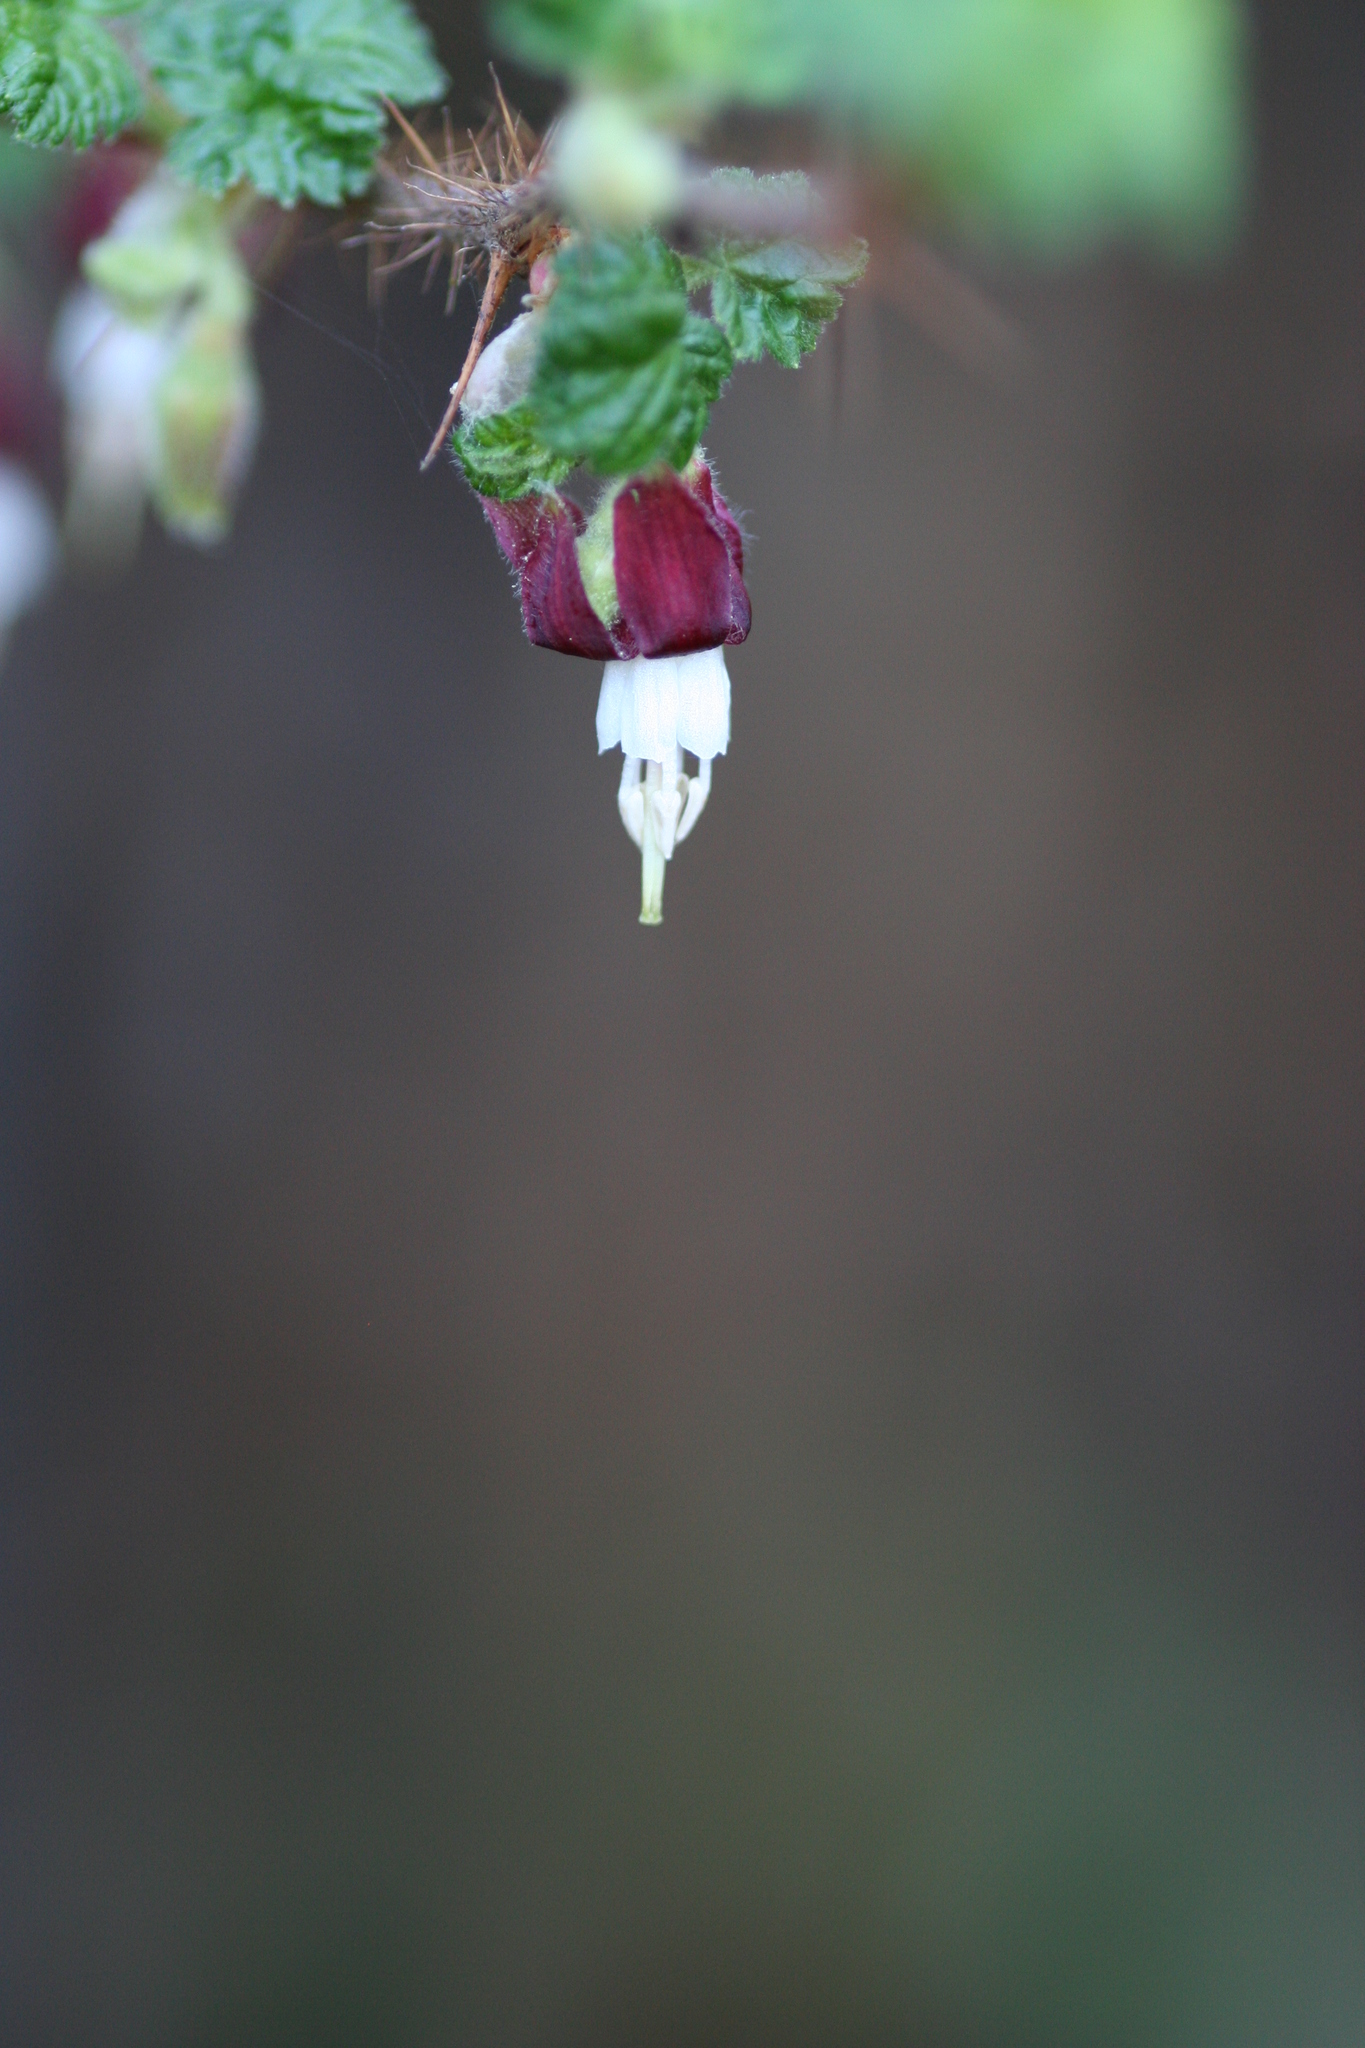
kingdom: Plantae
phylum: Tracheophyta
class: Magnoliopsida
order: Saxifragales
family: Grossulariaceae
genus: Ribes
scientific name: Ribes menziesii
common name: Canyon gooseberry
